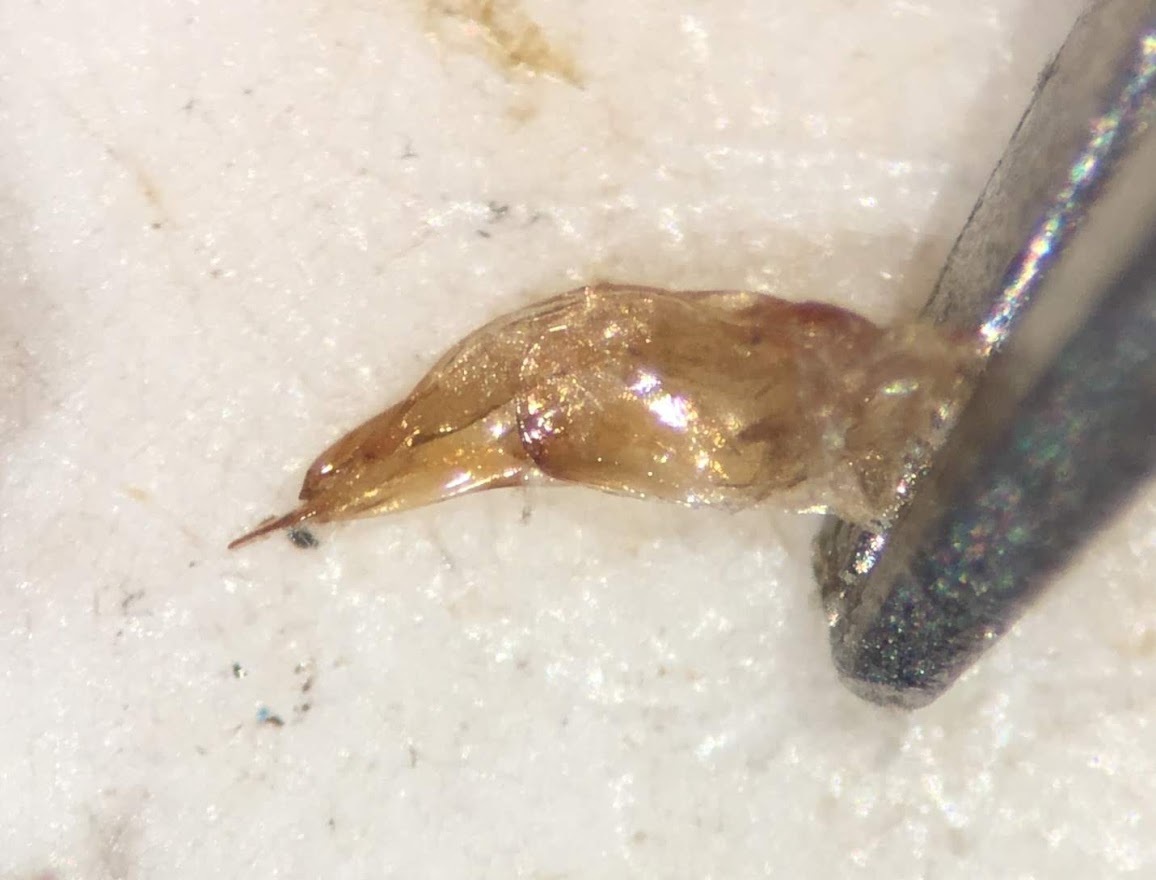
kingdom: Animalia
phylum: Arthropoda
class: Insecta
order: Coleoptera
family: Hydrophilidae
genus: Berosus
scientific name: Berosus fraternus
